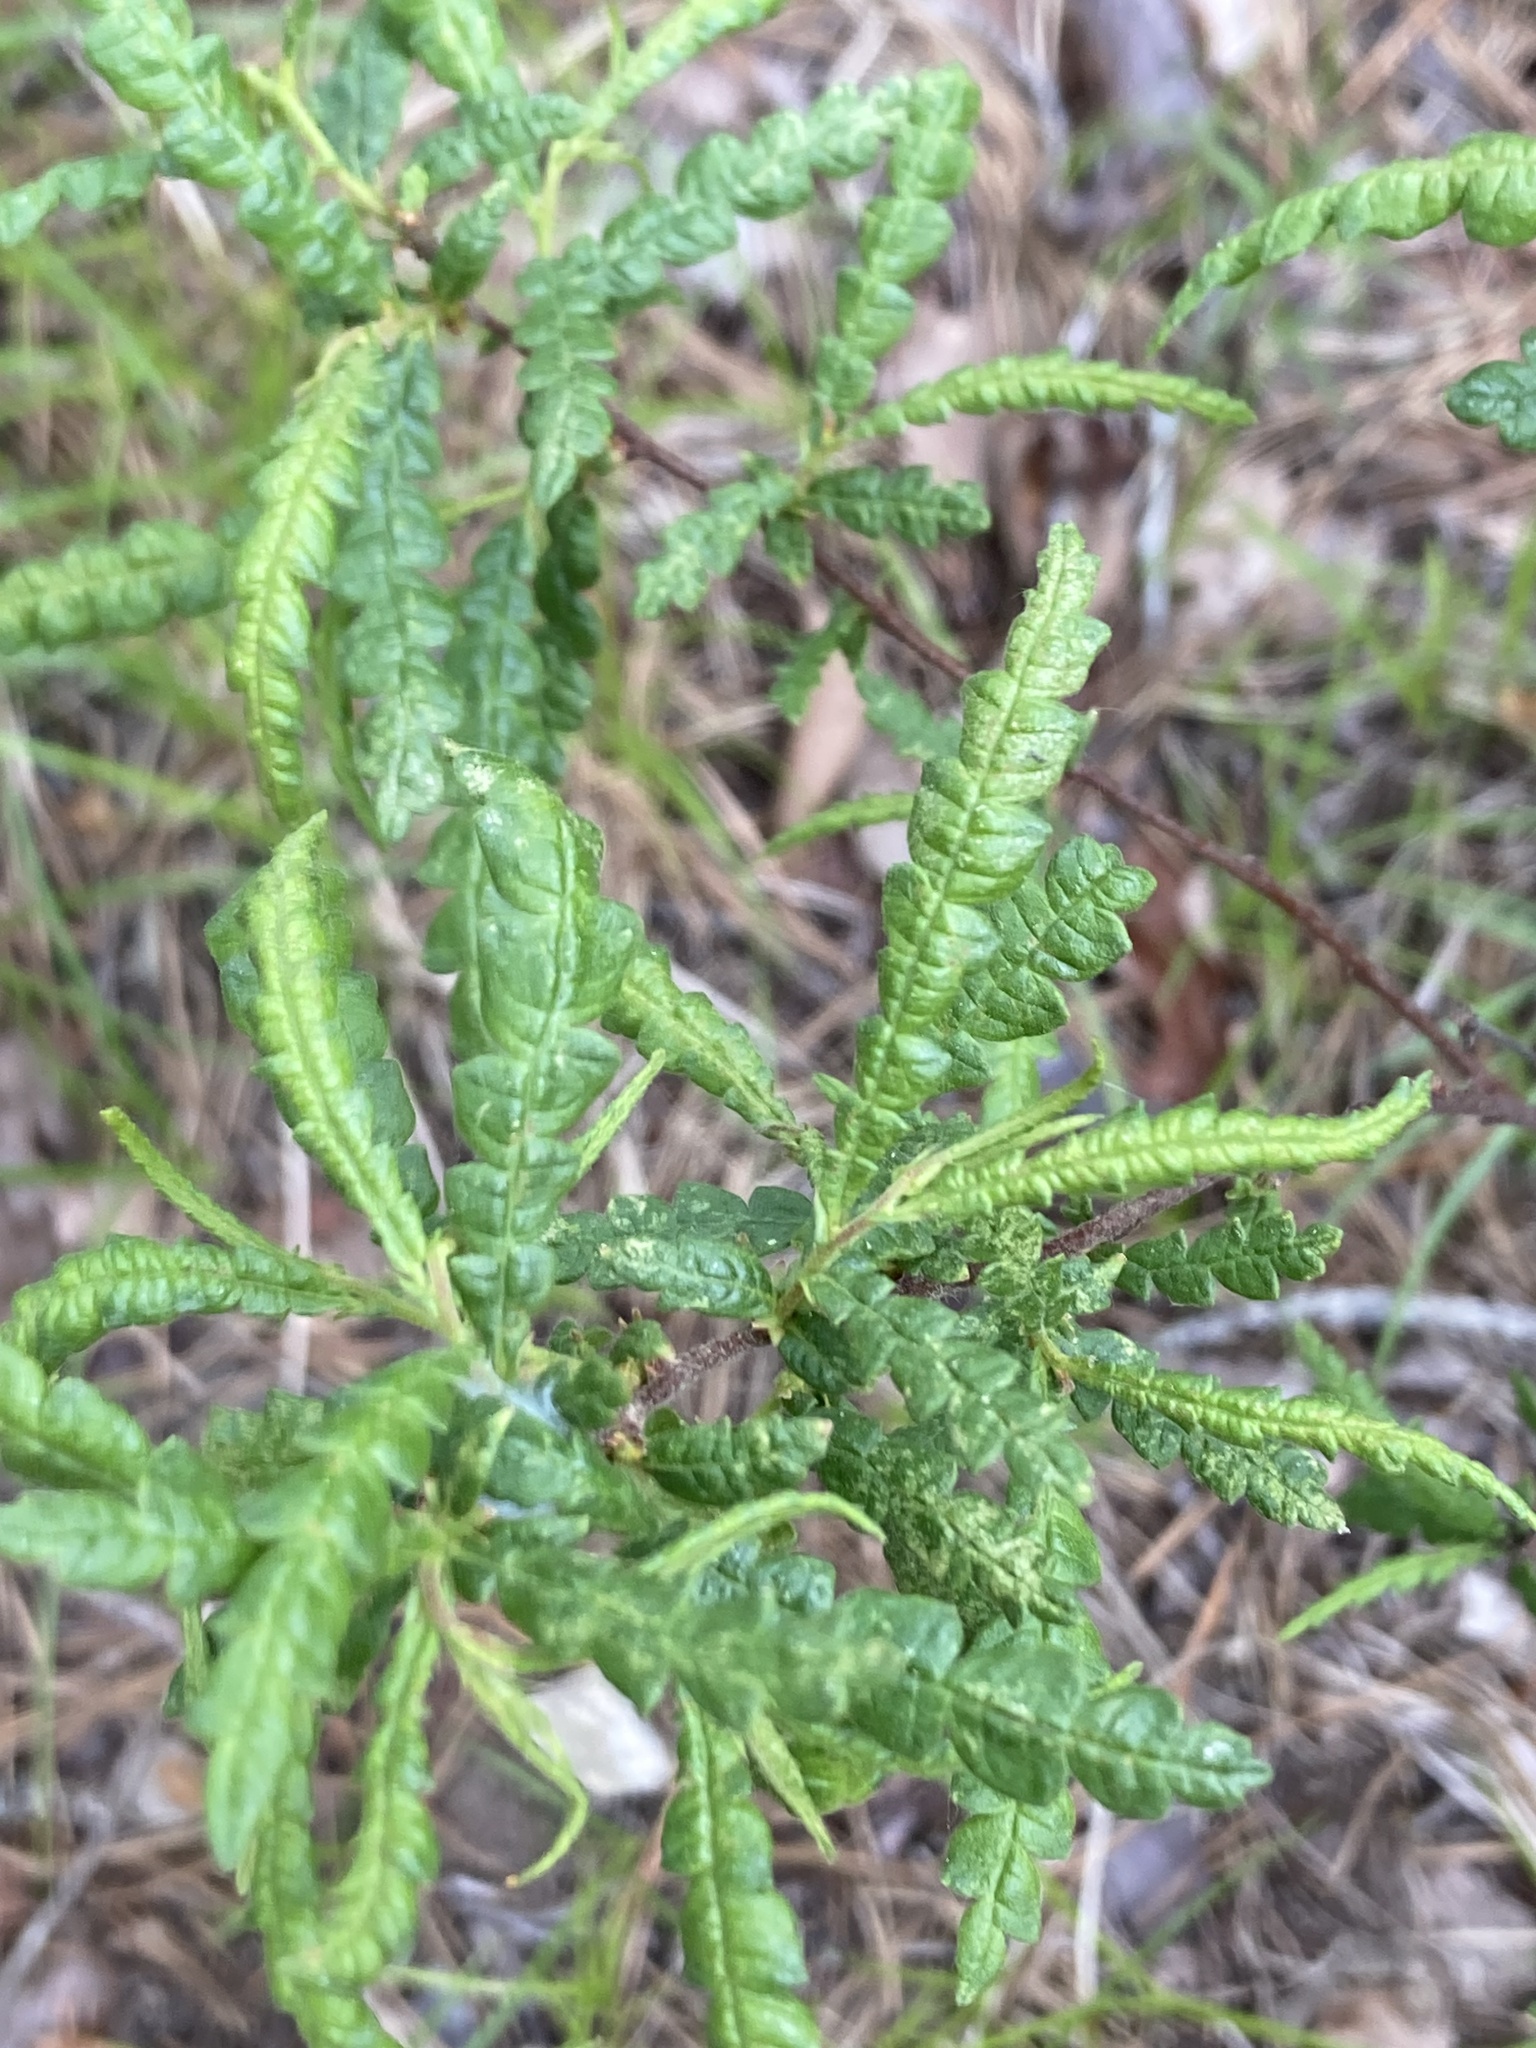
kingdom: Plantae
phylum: Tracheophyta
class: Magnoliopsida
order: Fagales
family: Myricaceae
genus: Comptonia
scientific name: Comptonia peregrina
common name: Sweet-fern
